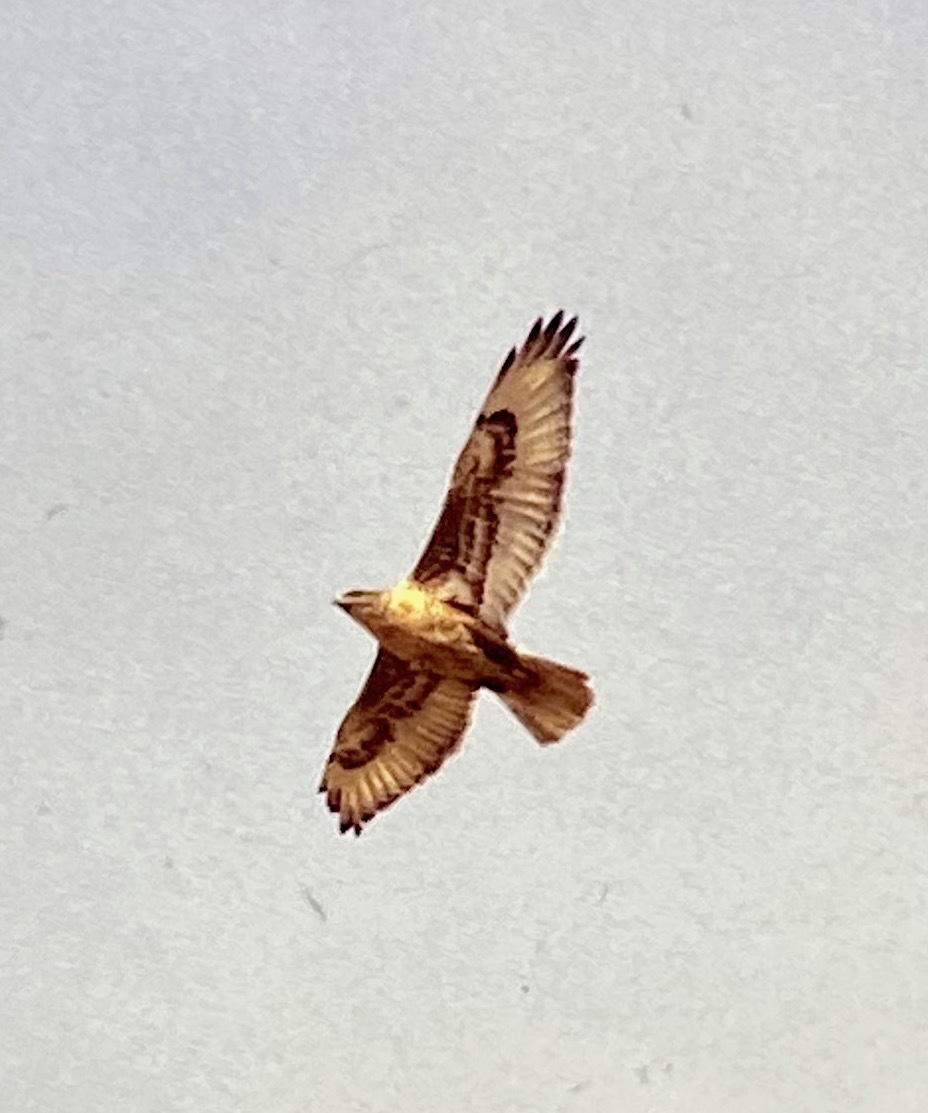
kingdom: Animalia
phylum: Chordata
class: Aves
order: Accipitriformes
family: Accipitridae
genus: Buteo
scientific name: Buteo regalis
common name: Ferruginous hawk
